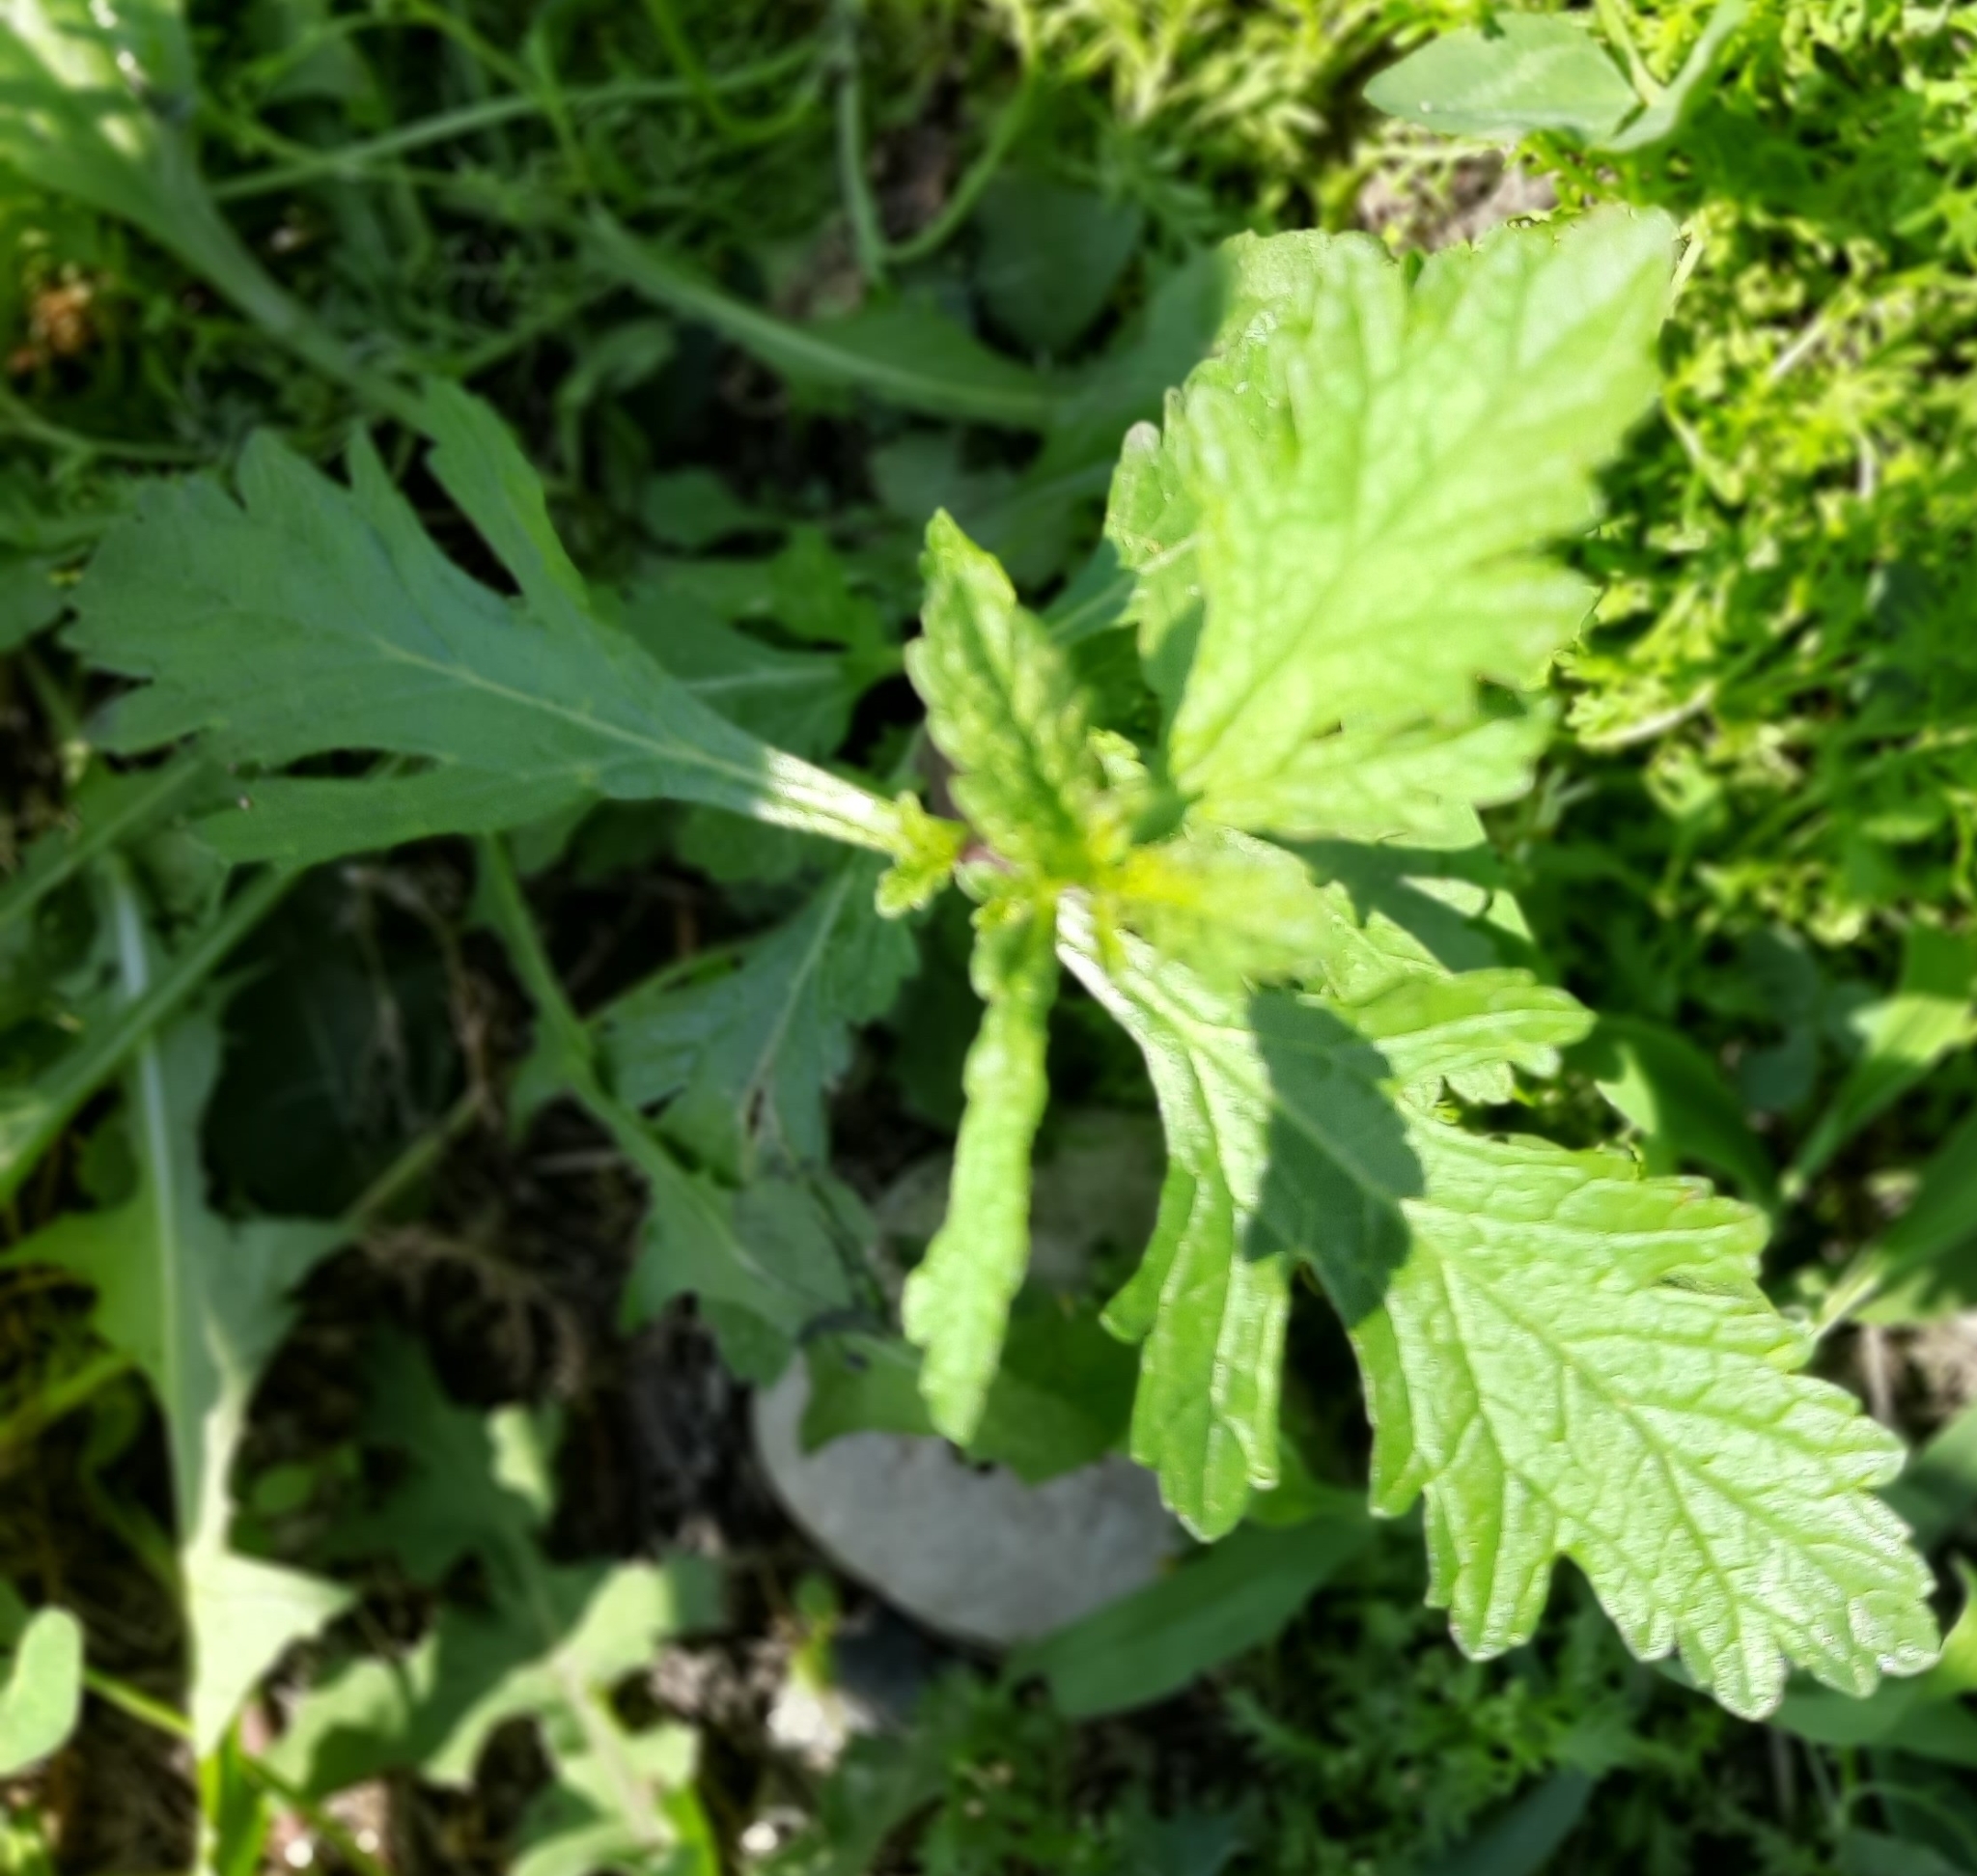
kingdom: Plantae
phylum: Tracheophyta
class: Magnoliopsida
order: Lamiales
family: Verbenaceae
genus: Verbena
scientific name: Verbena officinalis
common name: Vervain
